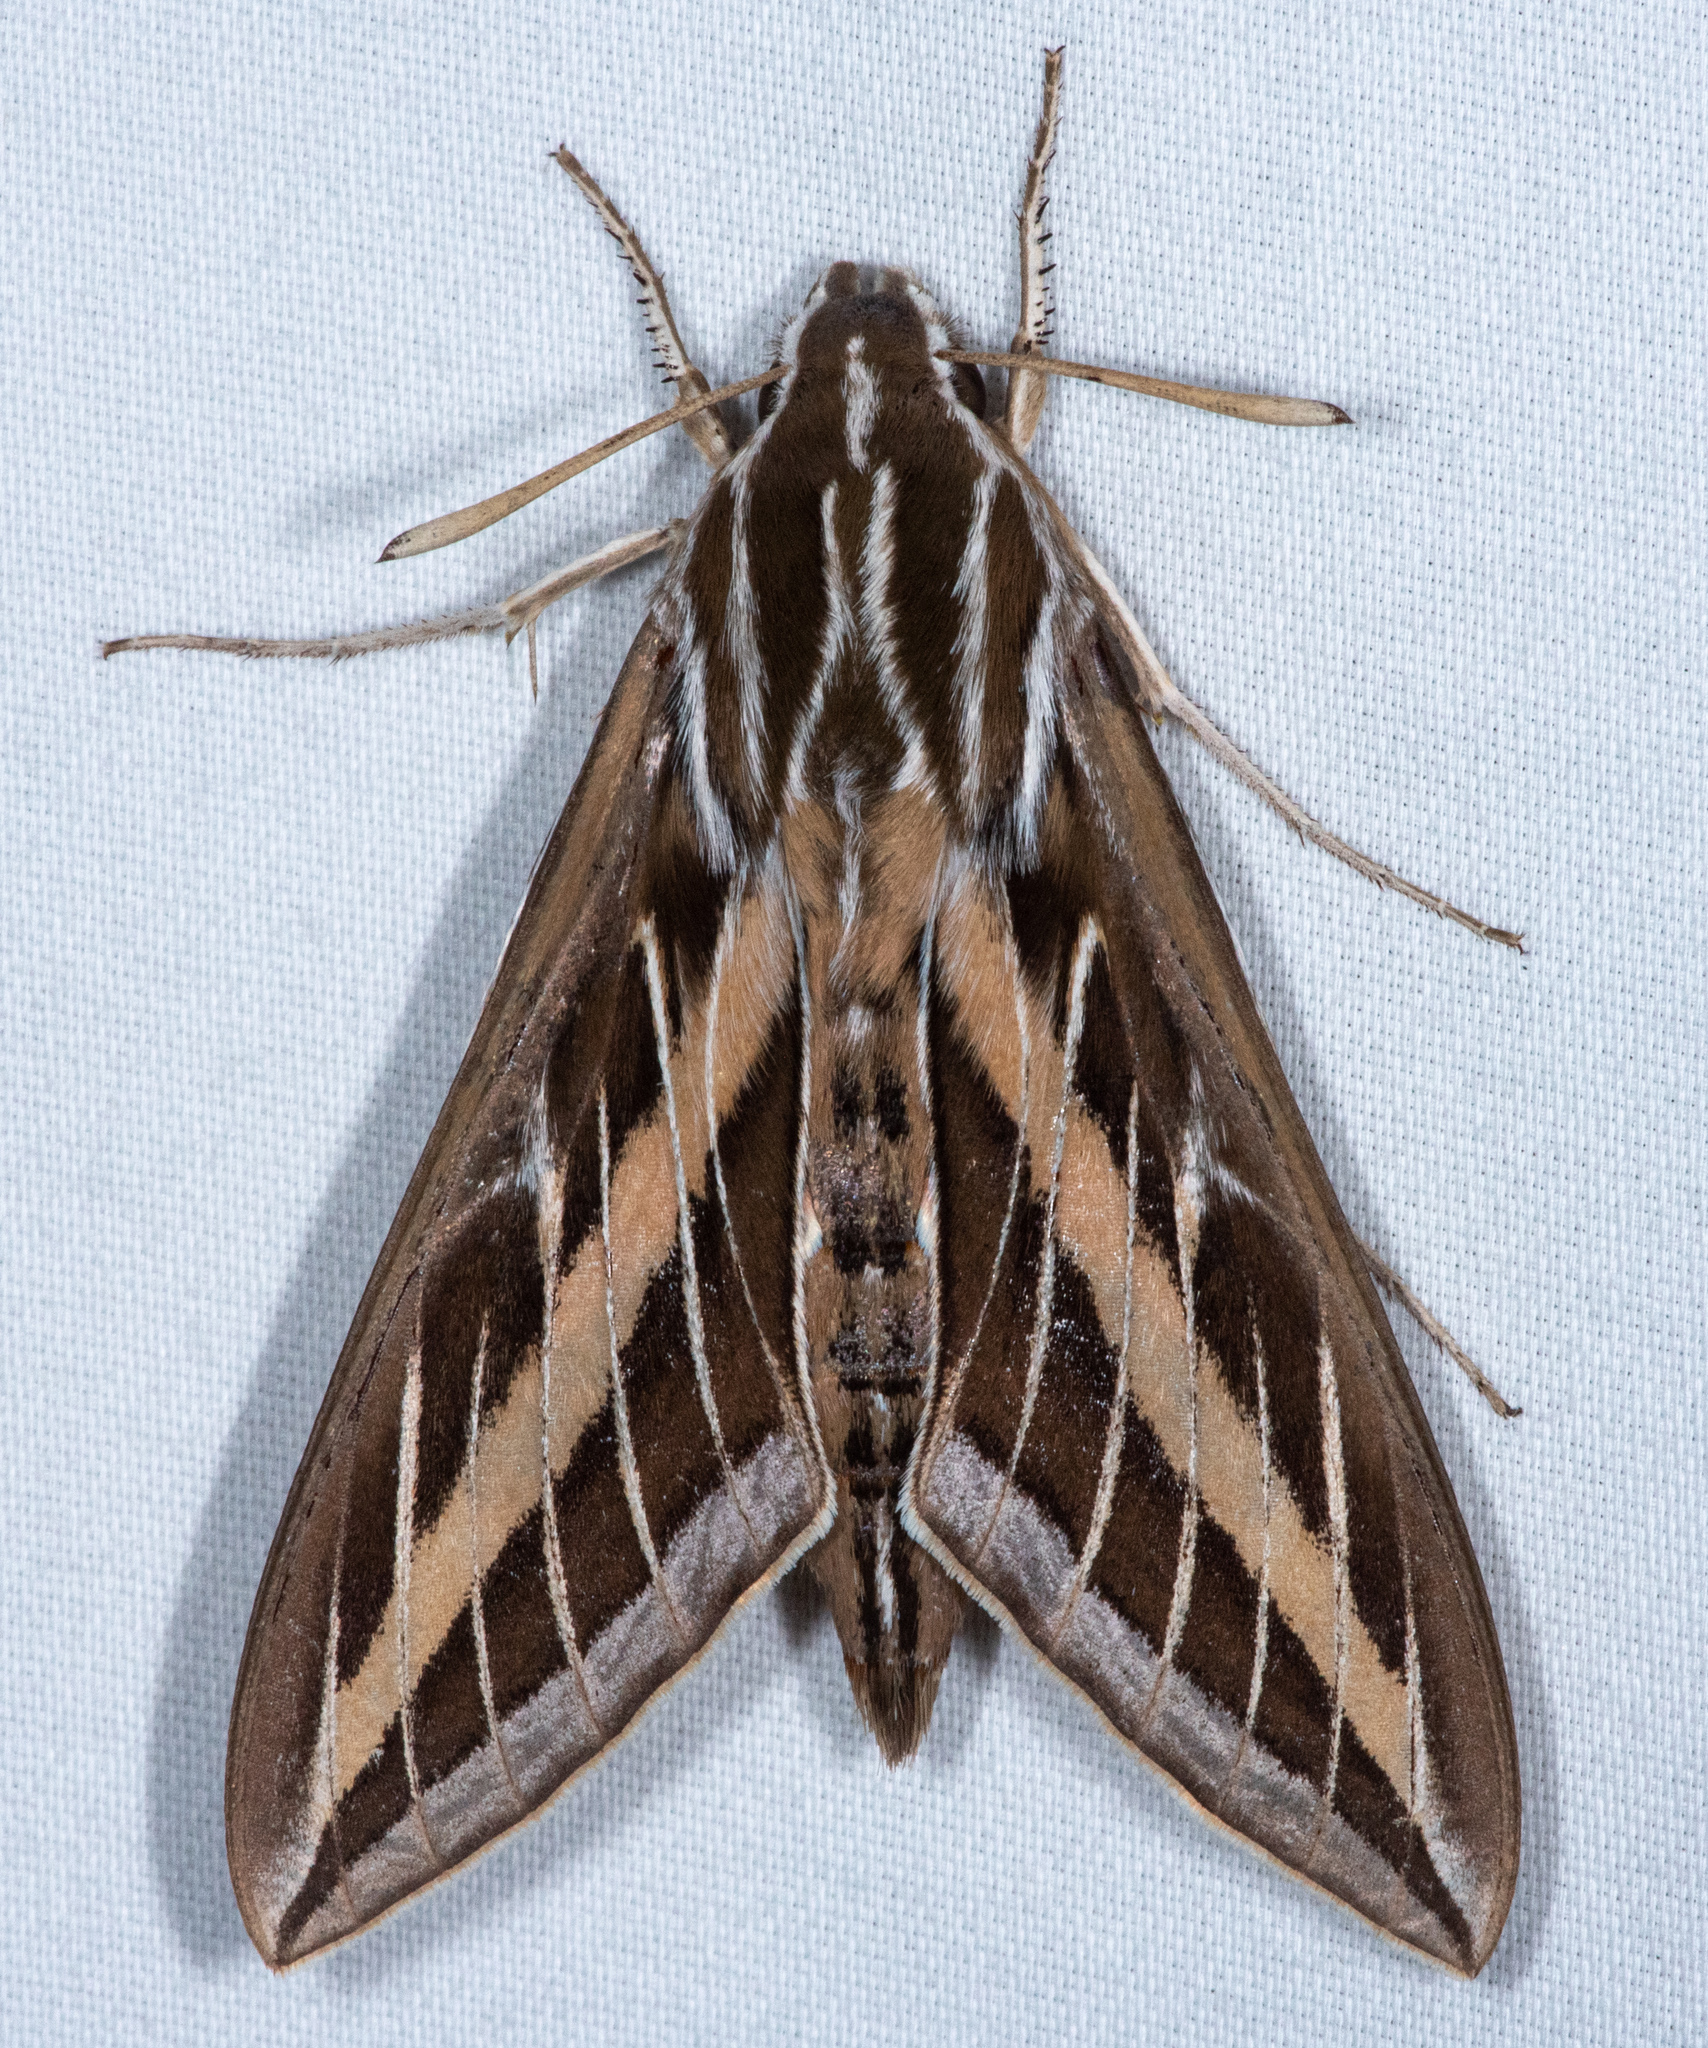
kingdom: Animalia
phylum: Arthropoda
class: Insecta
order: Lepidoptera
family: Sphingidae
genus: Hyles
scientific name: Hyles lineata
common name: White-lined sphinx
